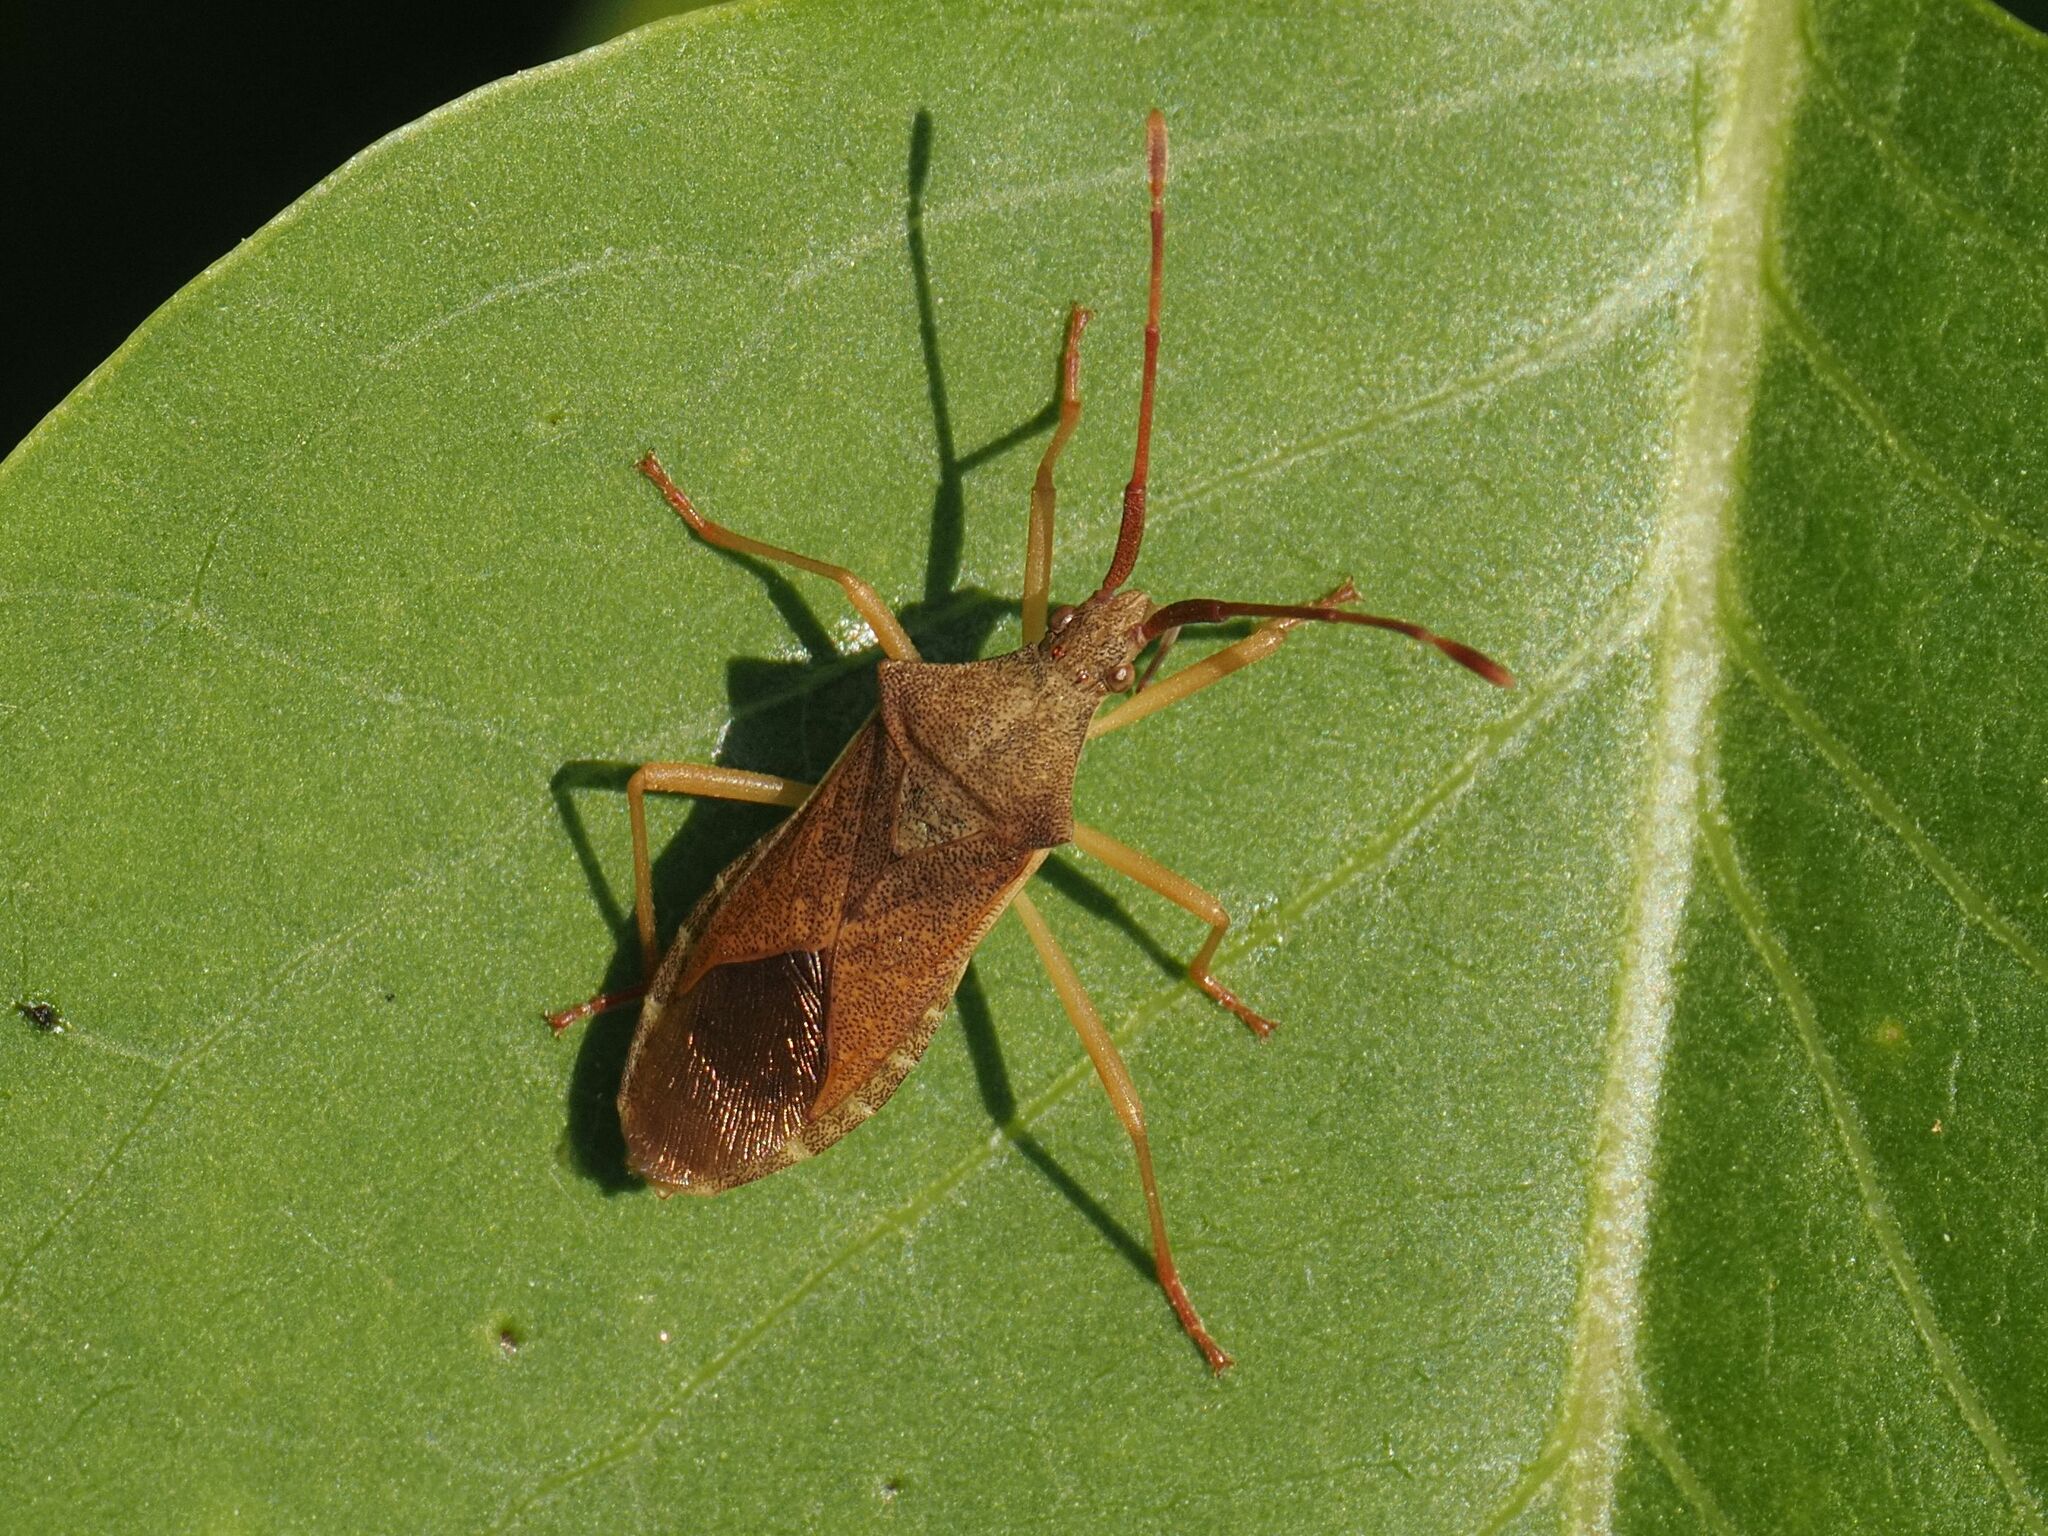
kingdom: Animalia
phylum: Arthropoda
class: Insecta
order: Hemiptera
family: Coreidae
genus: Gonocerus
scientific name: Gonocerus acuteangulatus
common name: Box bug
